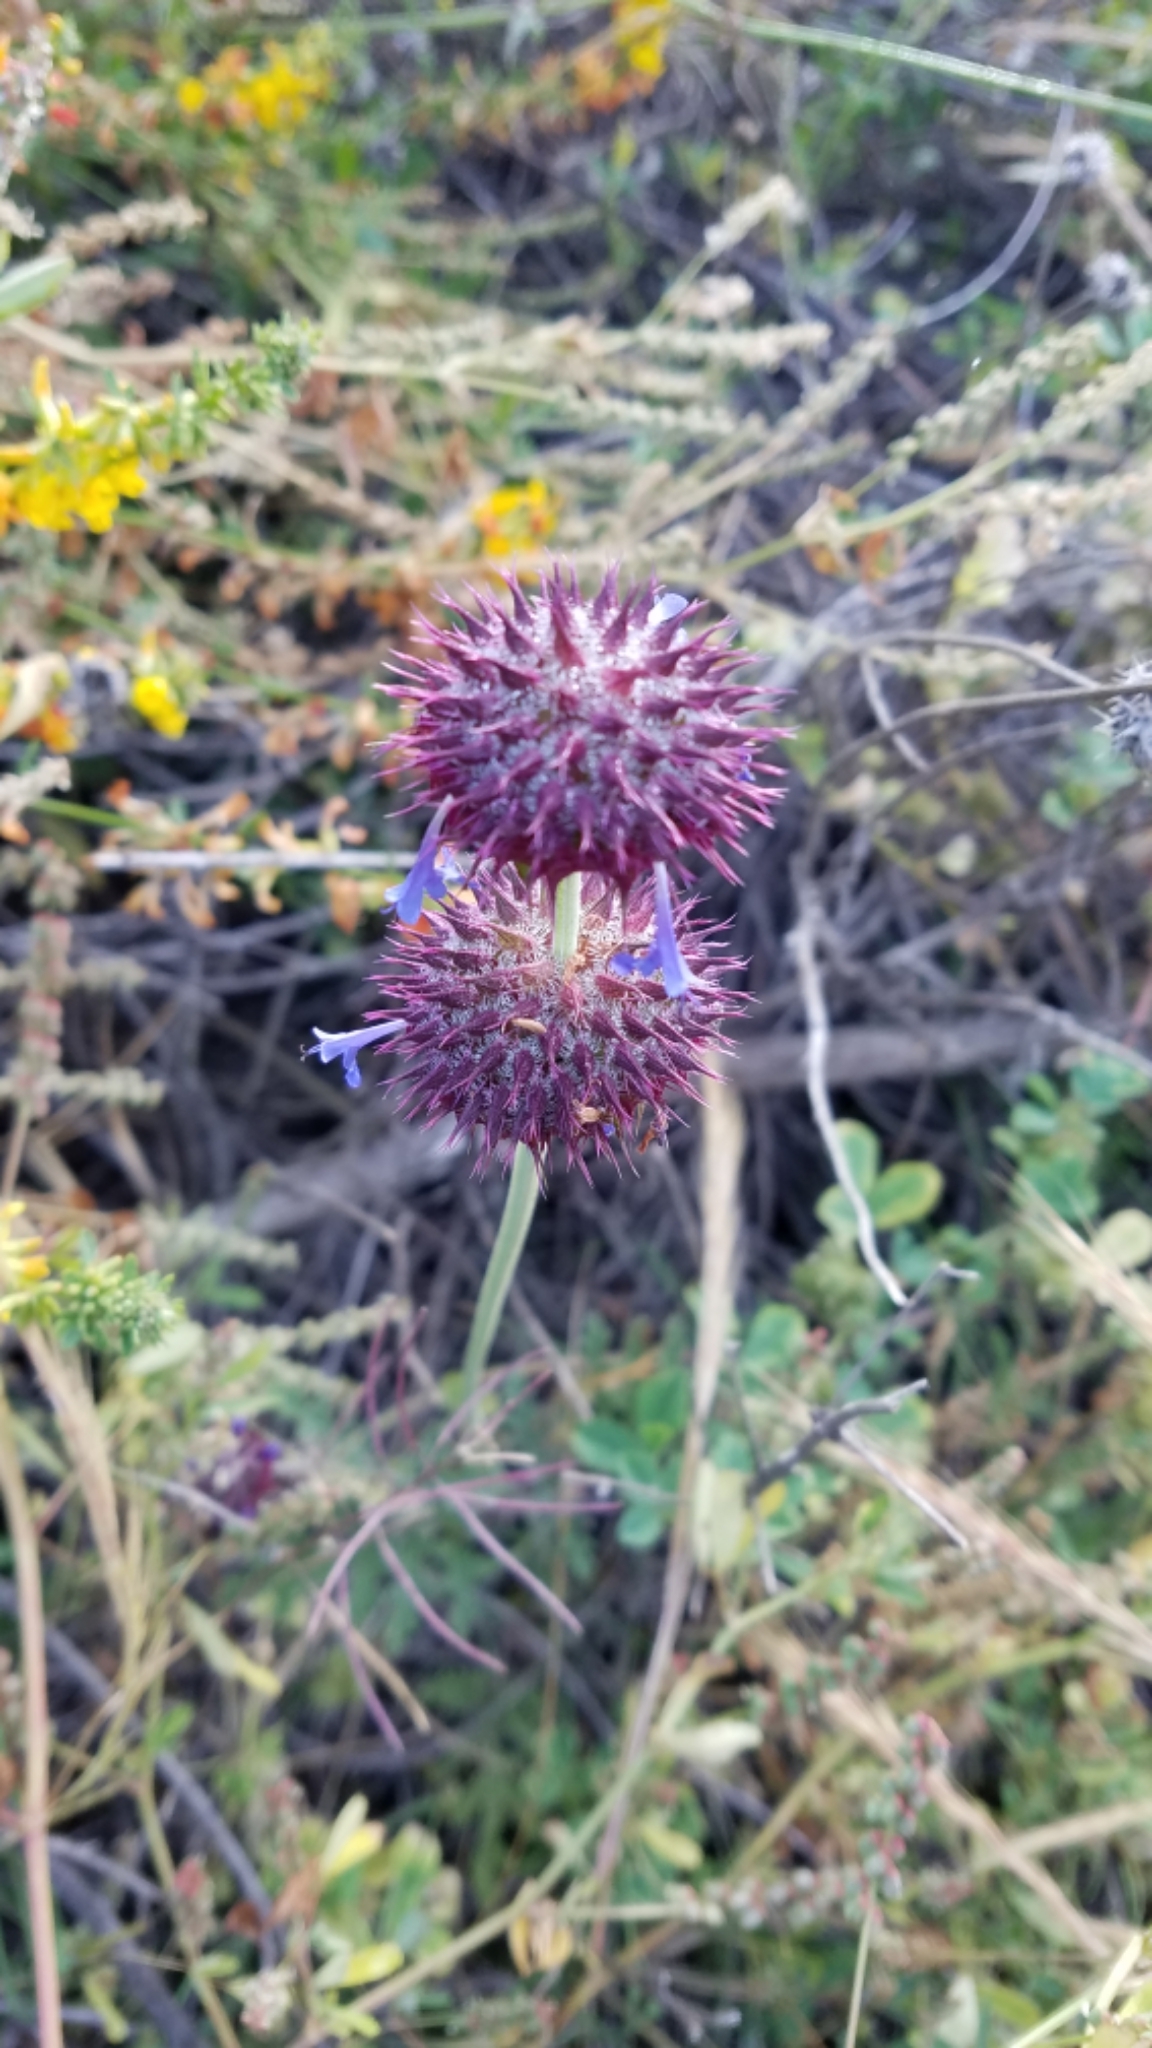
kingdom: Plantae
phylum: Tracheophyta
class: Magnoliopsida
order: Lamiales
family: Lamiaceae
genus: Salvia
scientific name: Salvia columbariae
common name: Chia
